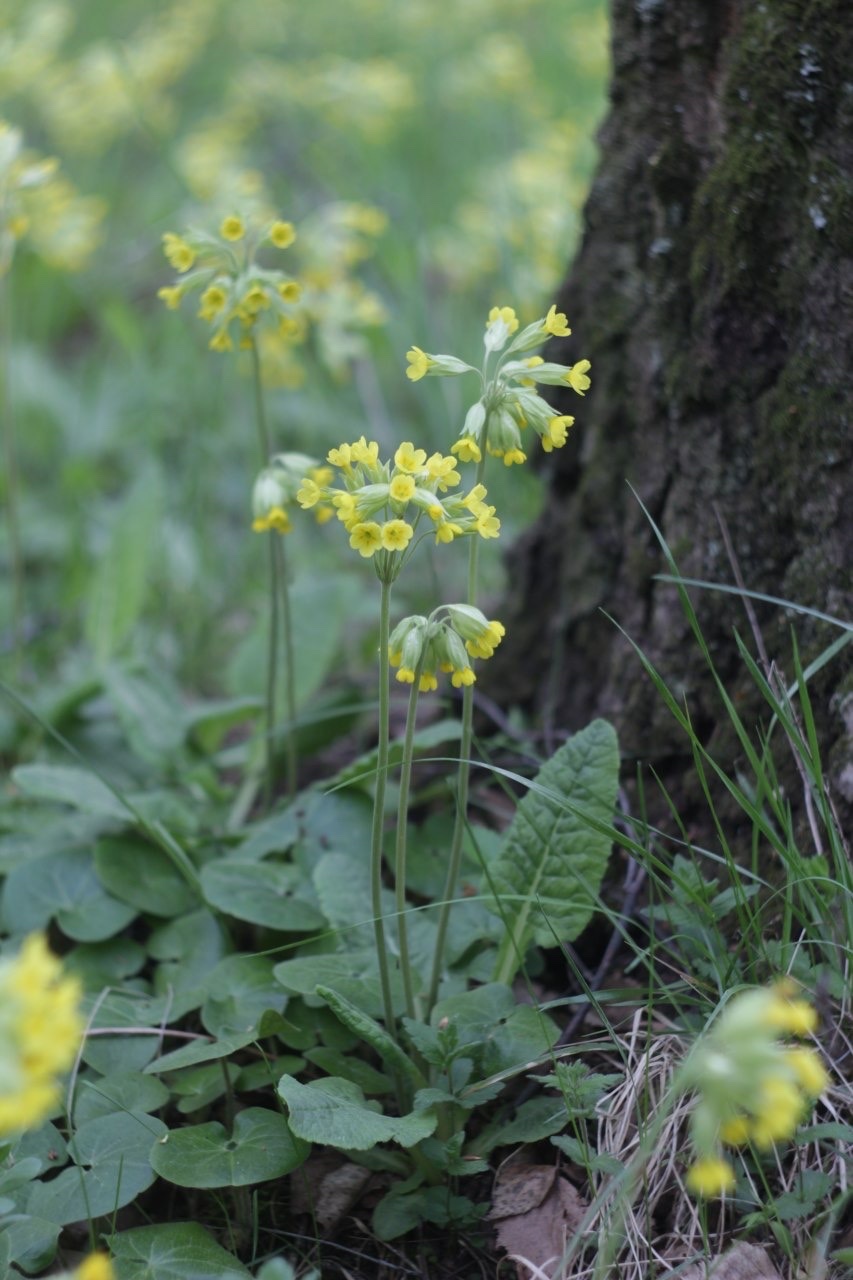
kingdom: Plantae
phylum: Tracheophyta
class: Magnoliopsida
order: Ericales
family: Primulaceae
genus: Primula
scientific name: Primula veris
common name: Cowslip
